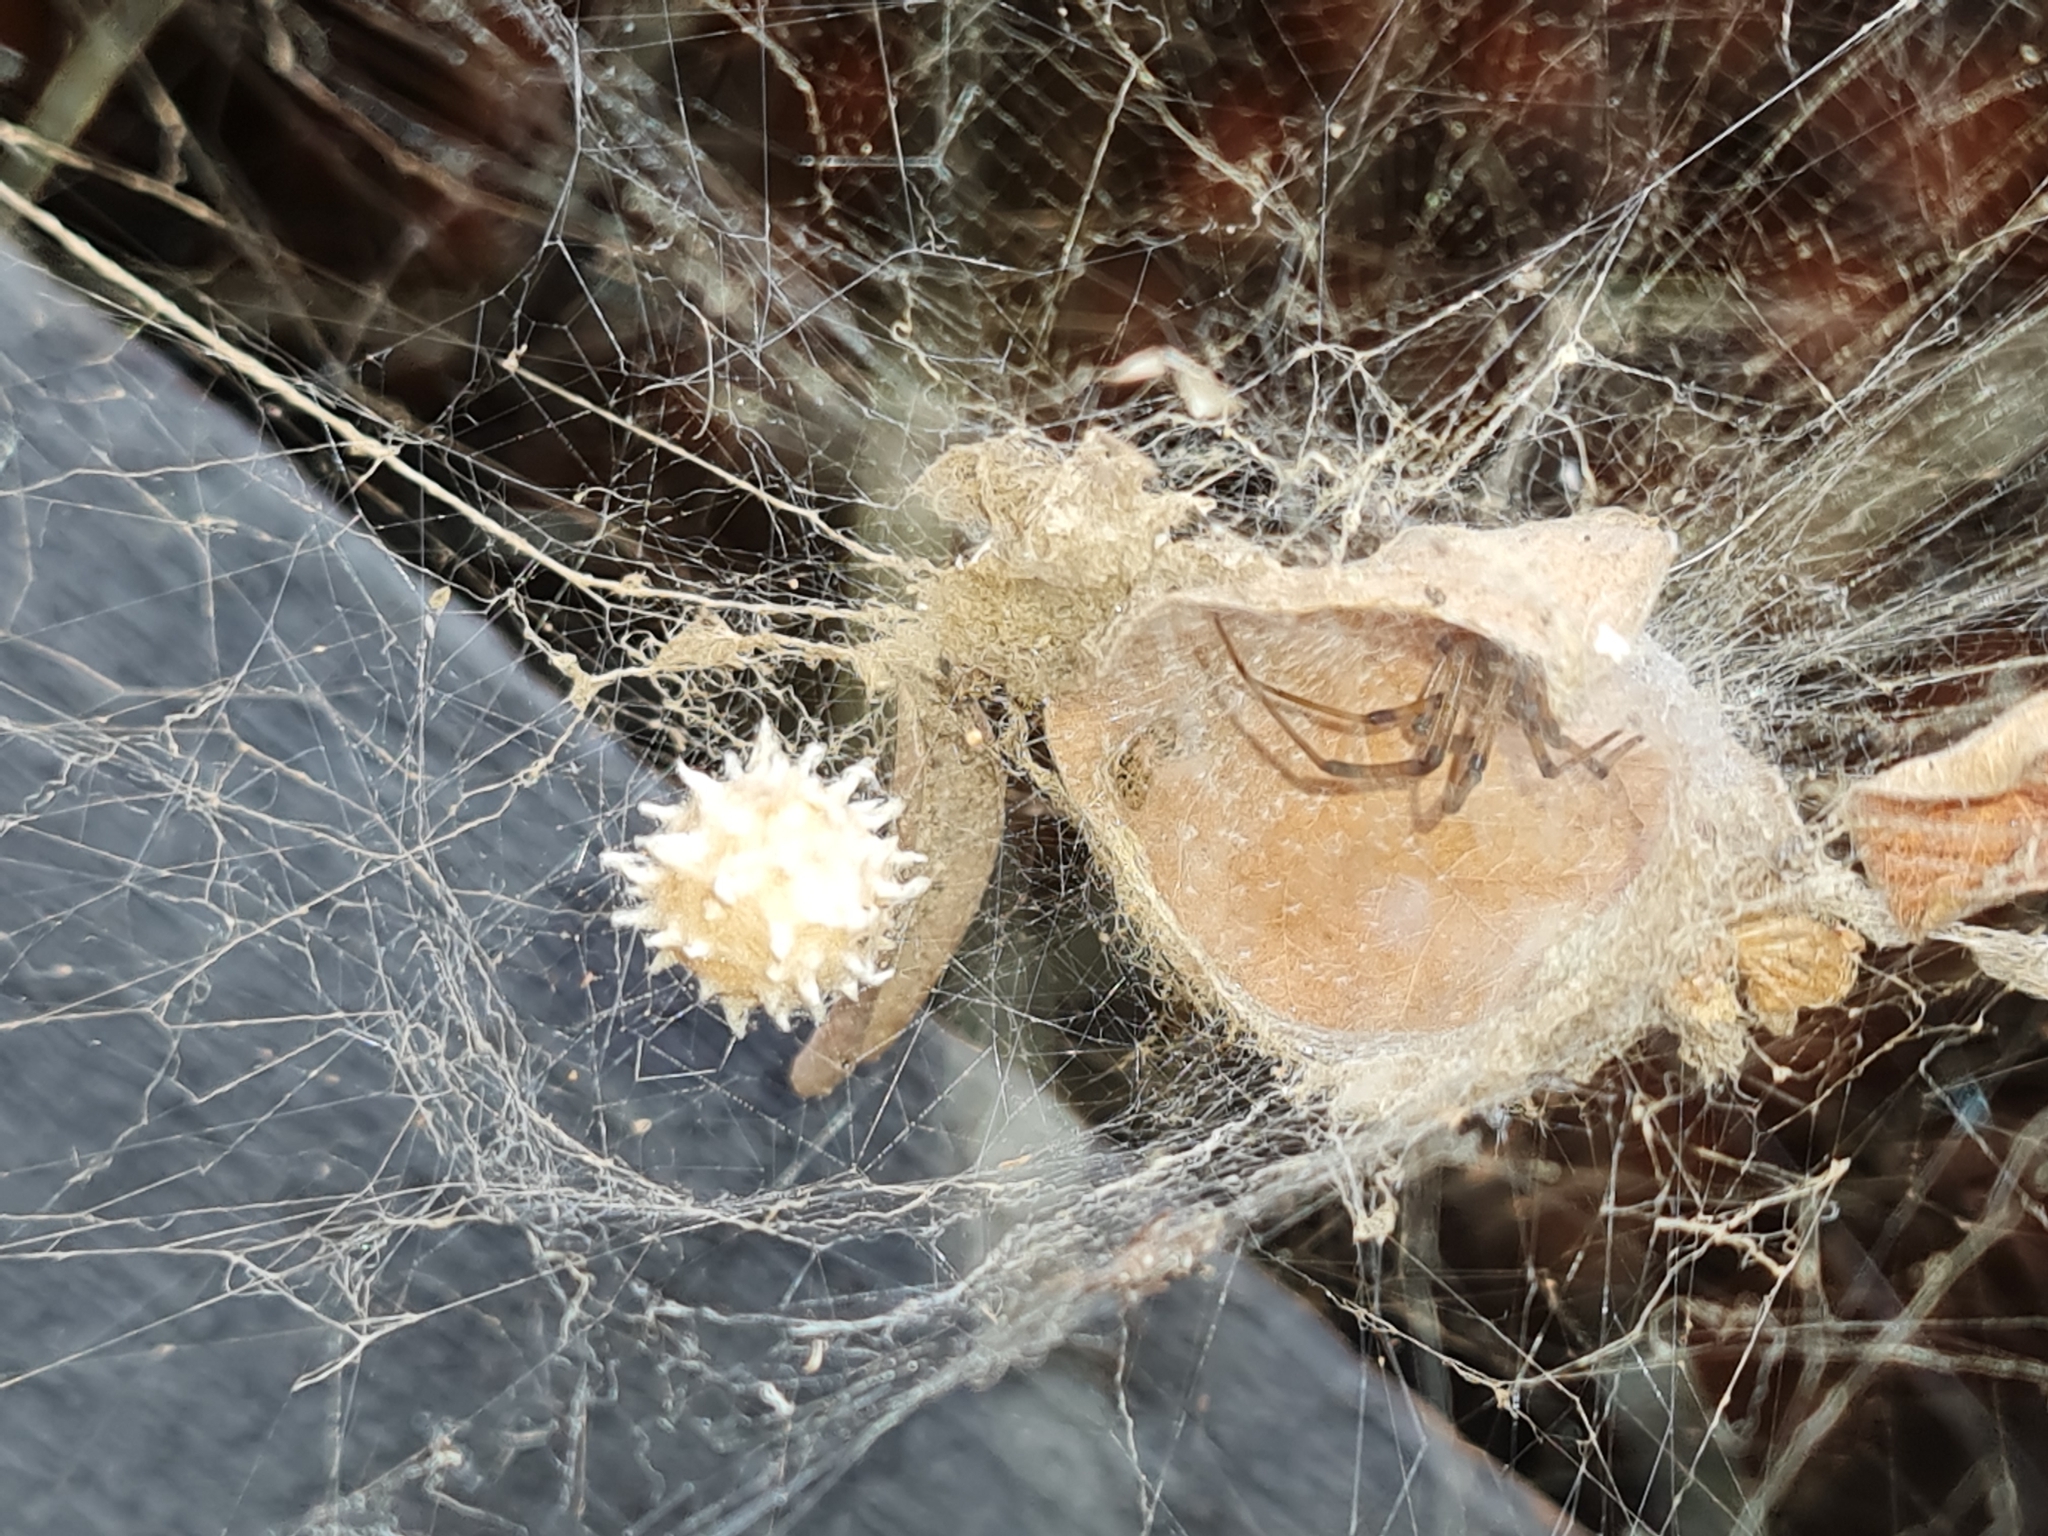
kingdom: Animalia
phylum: Arthropoda
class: Arachnida
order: Araneae
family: Theridiidae
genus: Latrodectus
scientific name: Latrodectus geometricus
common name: Brown widow spider
